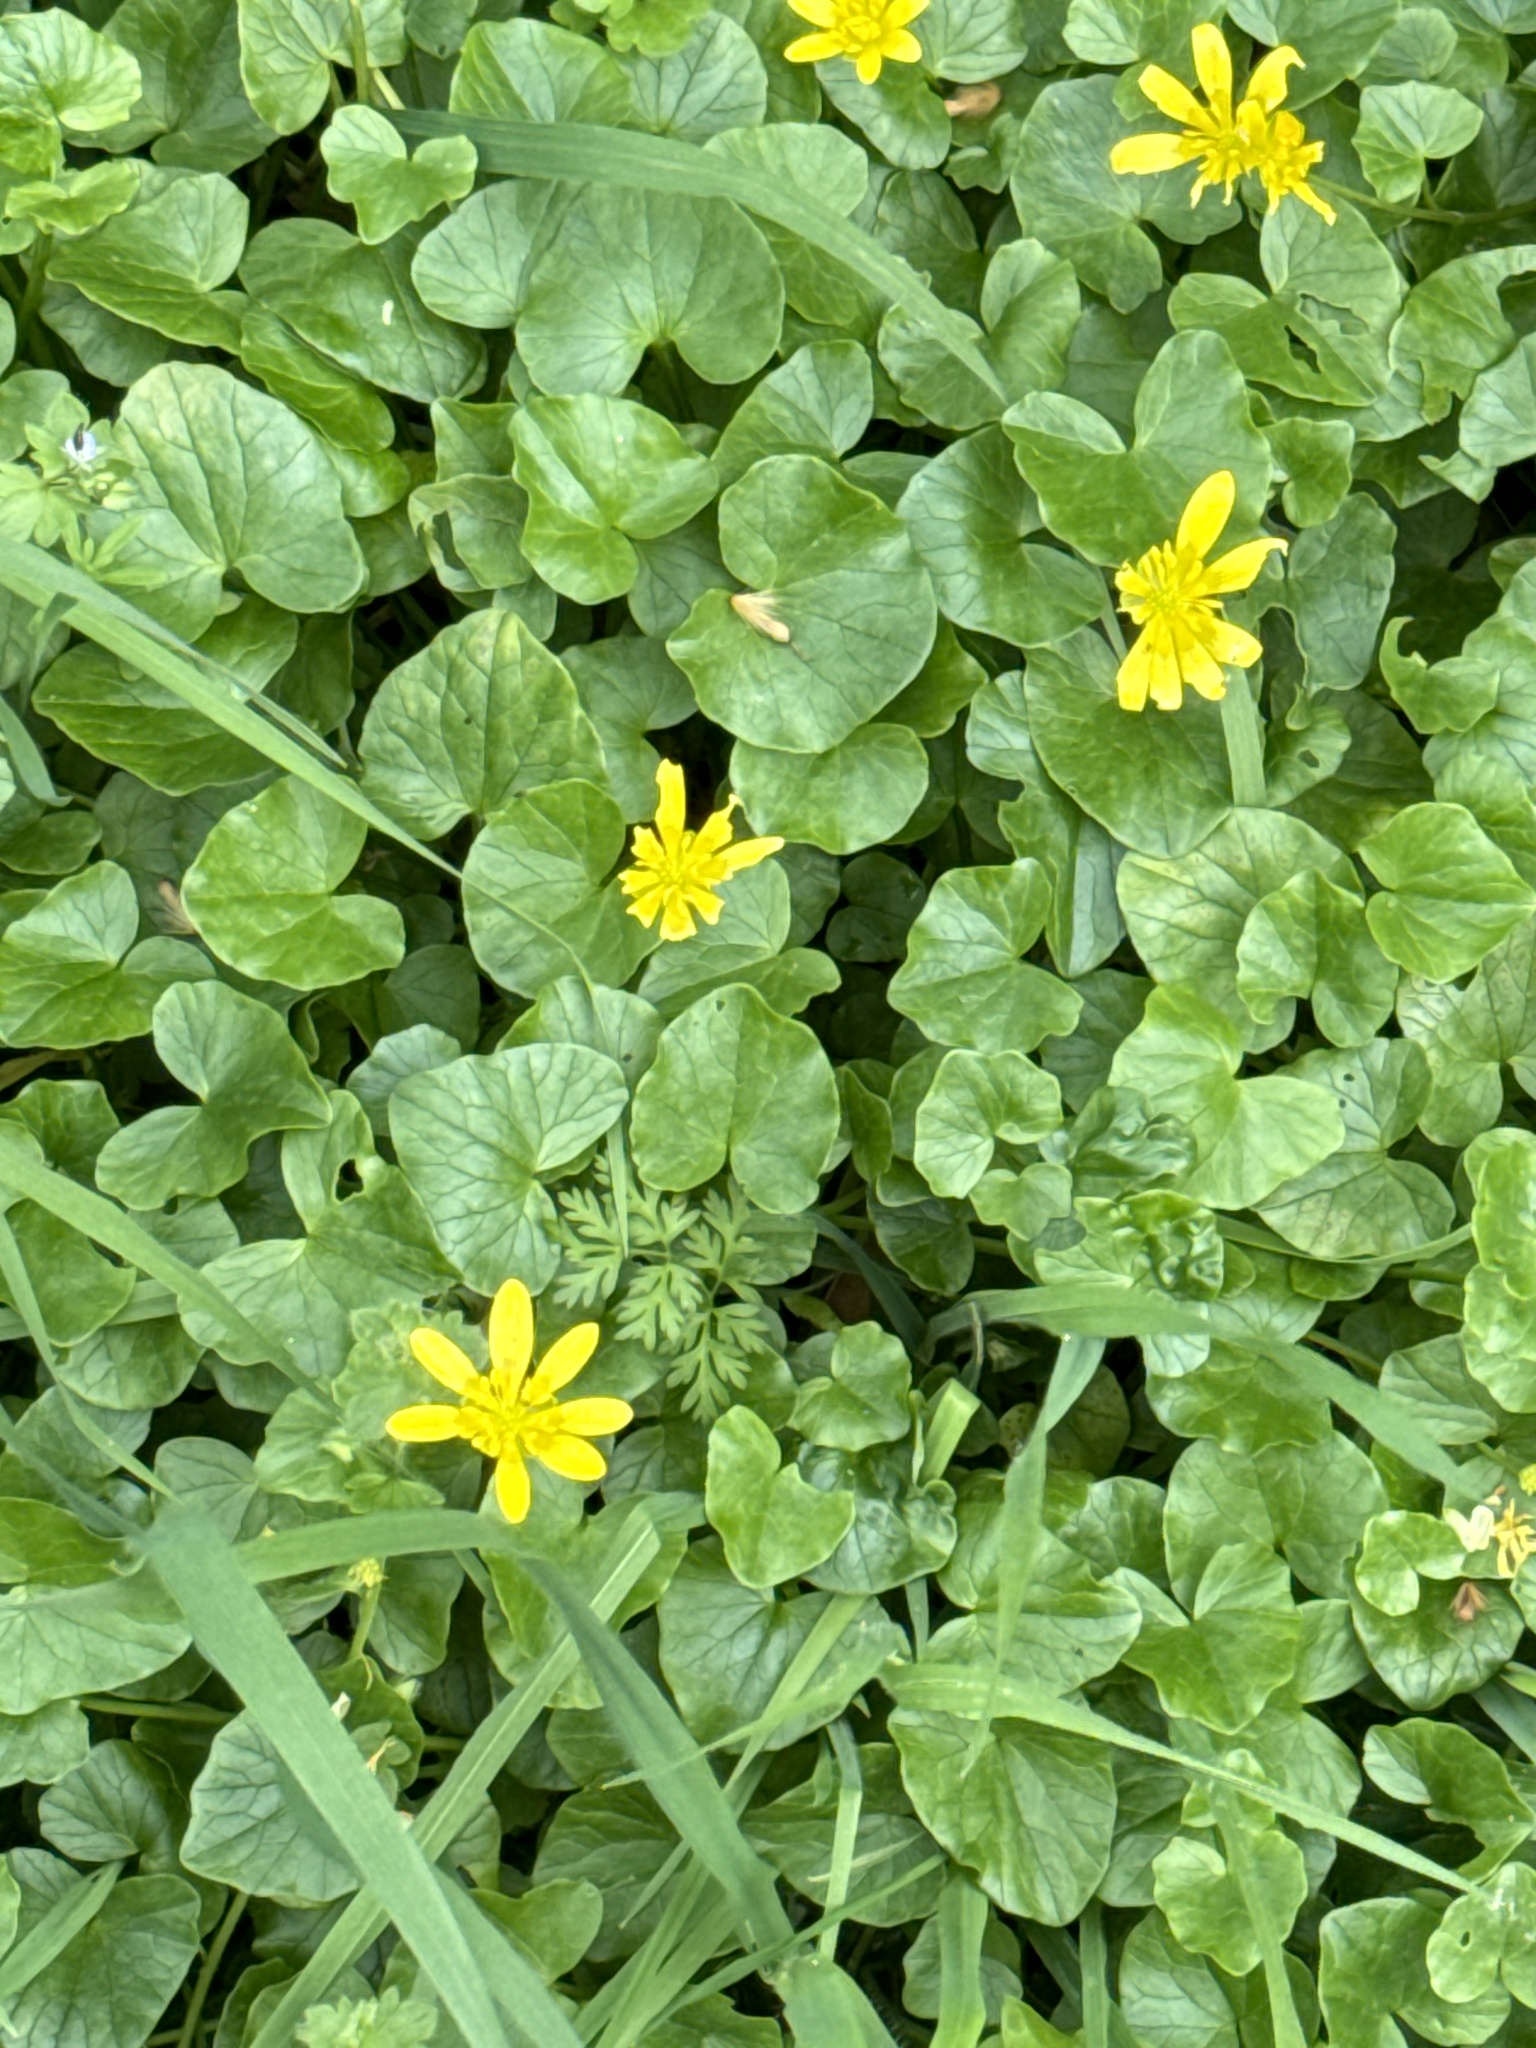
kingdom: Plantae
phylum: Tracheophyta
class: Magnoliopsida
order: Ranunculales
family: Ranunculaceae
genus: Ficaria
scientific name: Ficaria verna
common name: Lesser celandine
